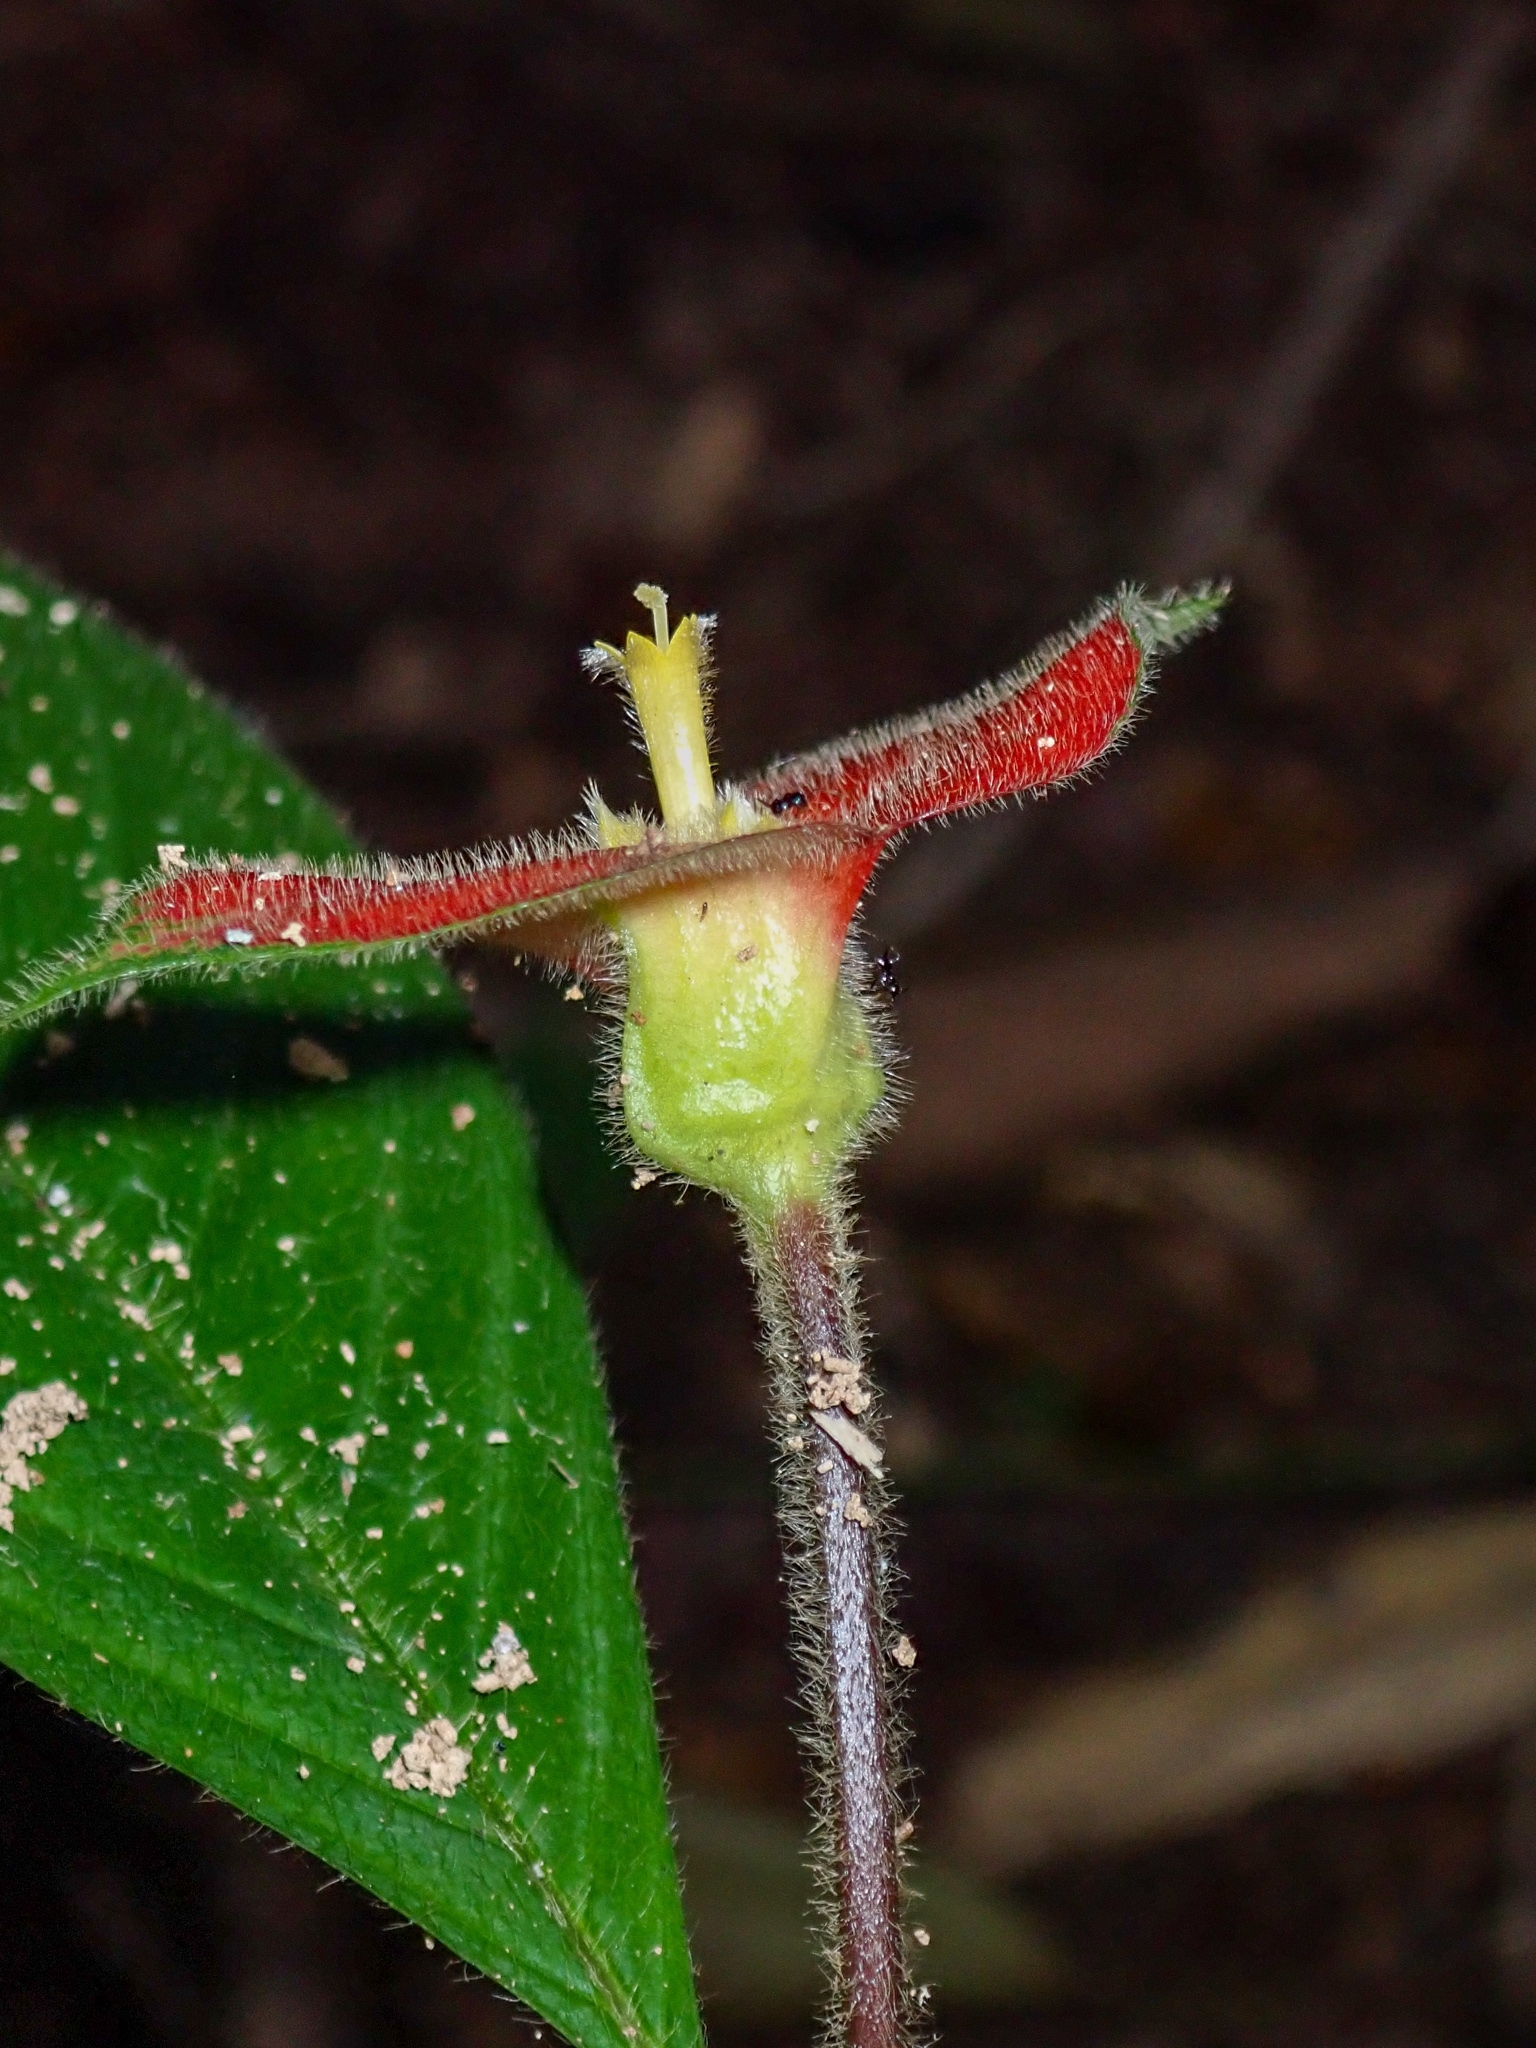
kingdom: Plantae
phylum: Tracheophyta
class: Magnoliopsida
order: Gentianales
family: Rubiaceae
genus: Palicourea
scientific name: Palicourea tomentosa
